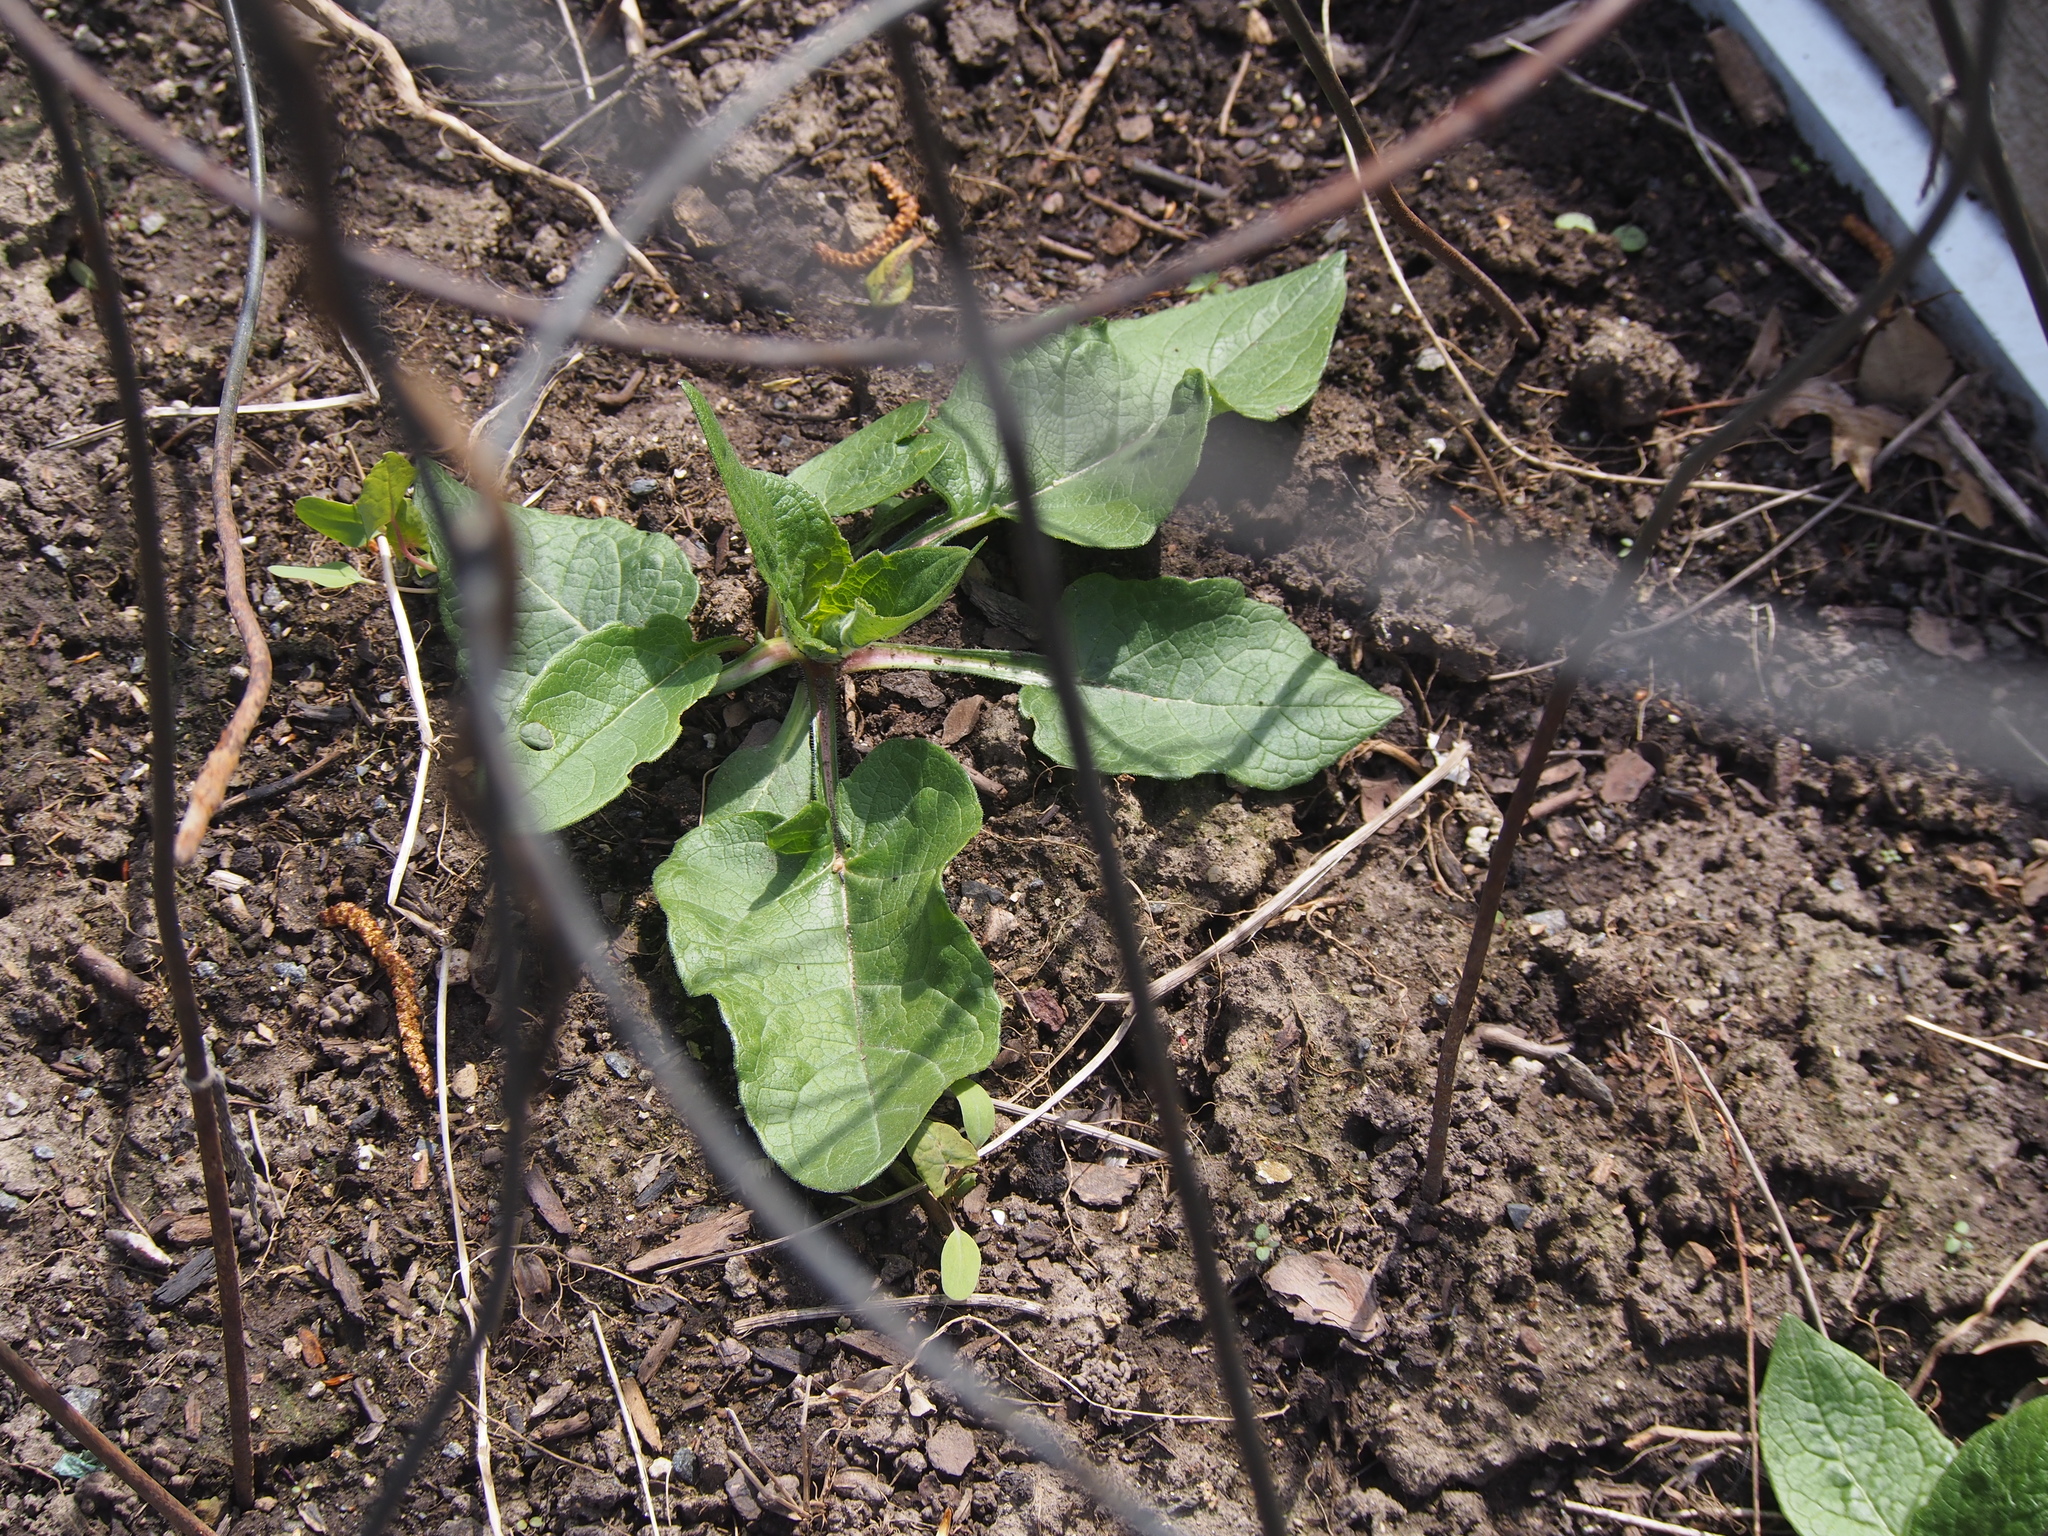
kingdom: Plantae
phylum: Tracheophyta
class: Magnoliopsida
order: Asterales
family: Asteraceae
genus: Arctium
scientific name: Arctium
